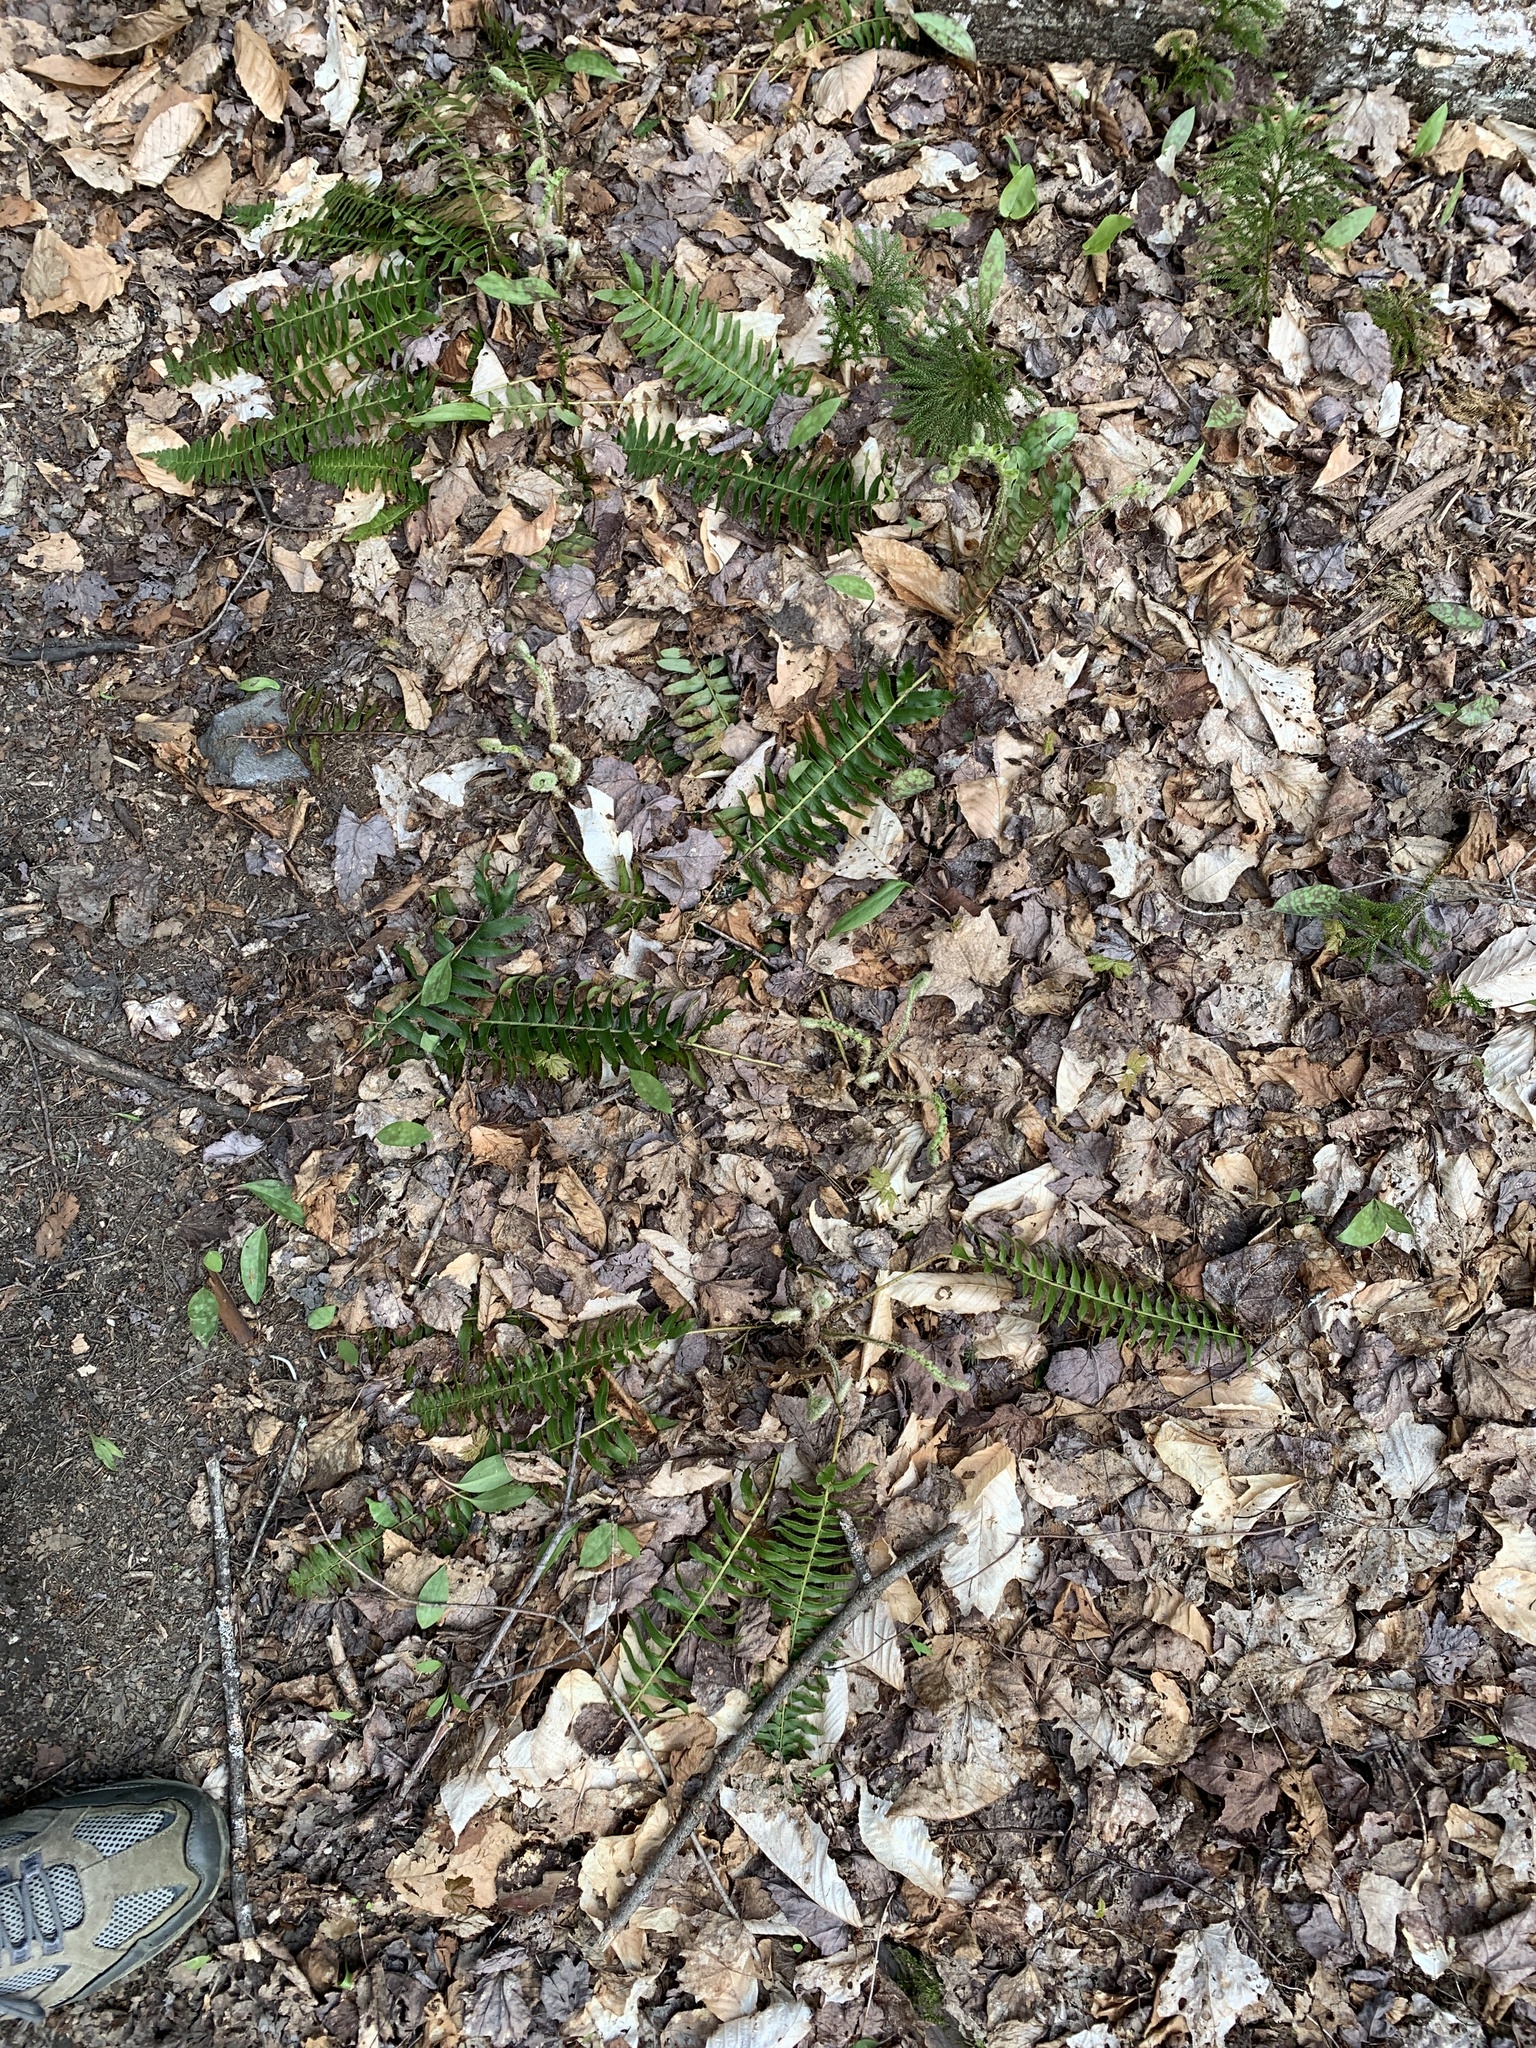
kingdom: Plantae
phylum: Tracheophyta
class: Polypodiopsida
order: Polypodiales
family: Dryopteridaceae
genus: Polystichum
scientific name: Polystichum acrostichoides
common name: Christmas fern
